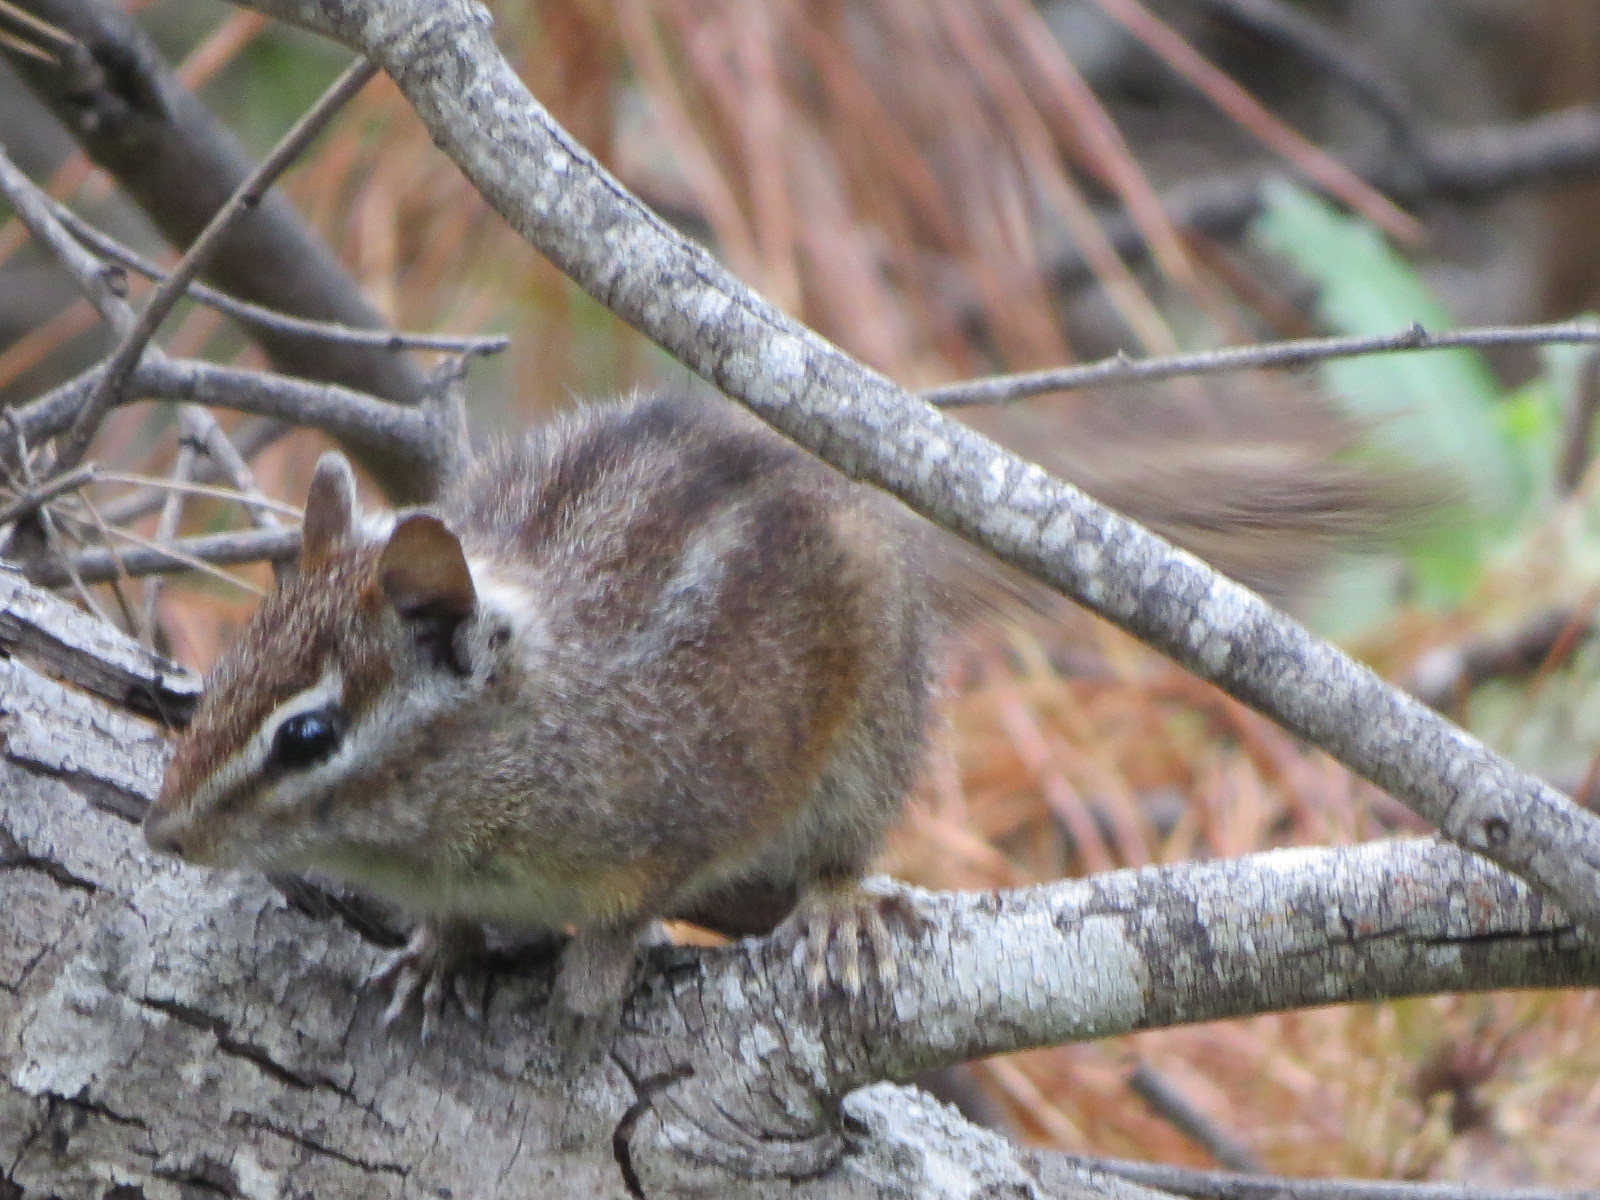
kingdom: Animalia
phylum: Chordata
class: Mammalia
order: Rodentia
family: Sciuridae
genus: Tamias
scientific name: Tamias merriami
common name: Merriam's chipmunk
